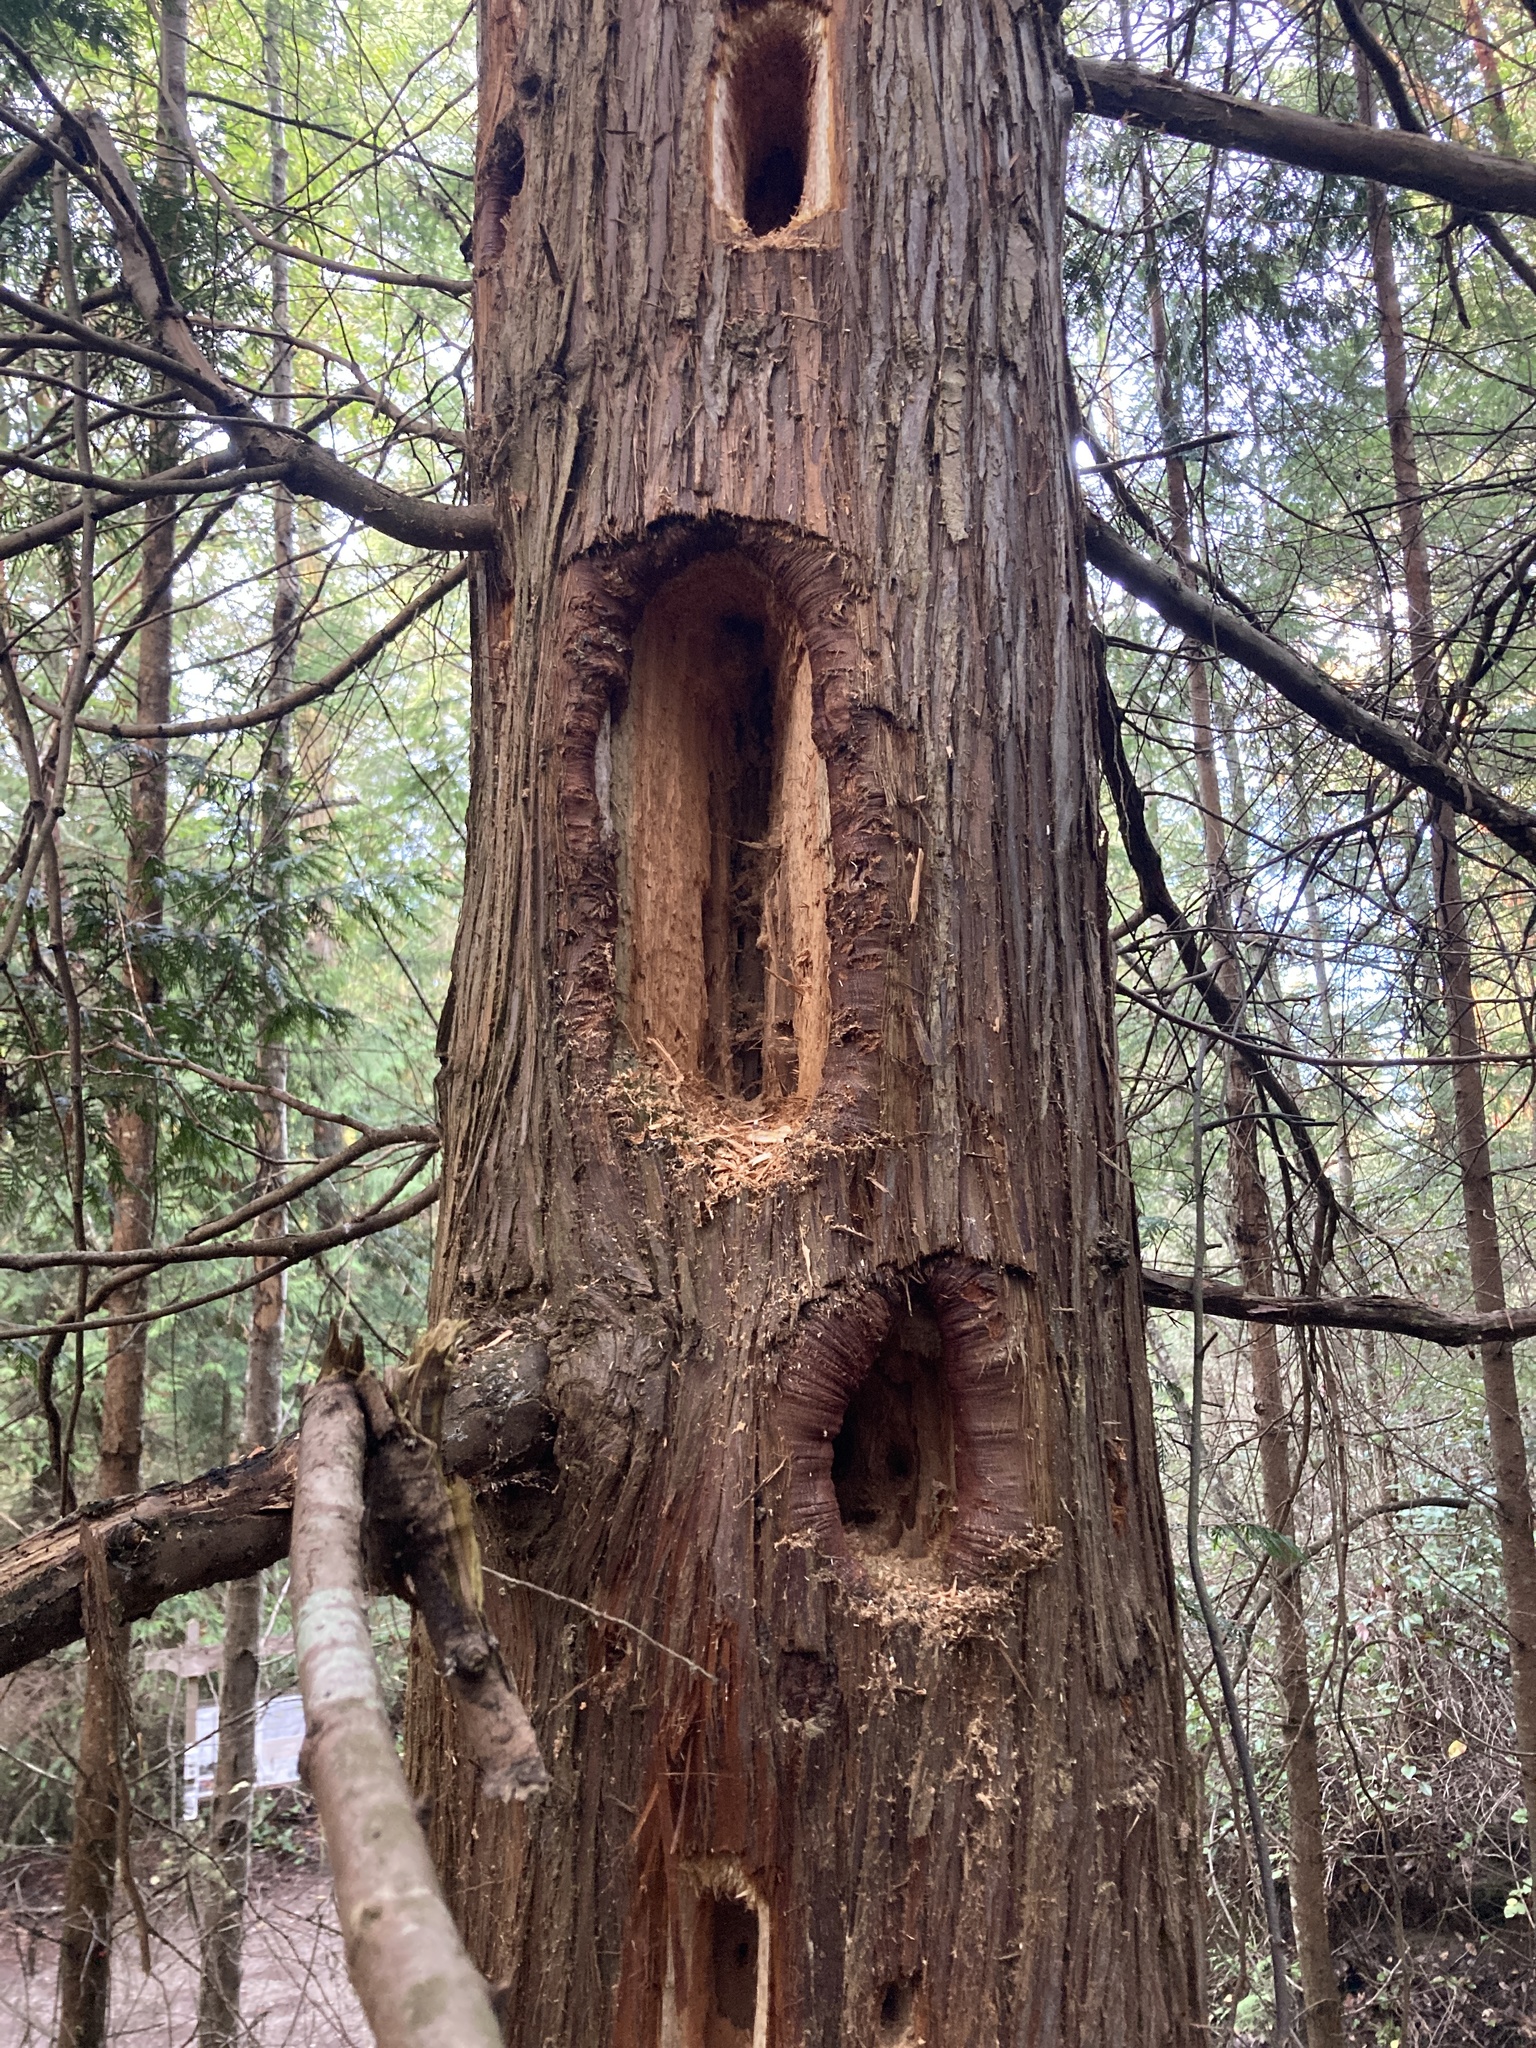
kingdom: Animalia
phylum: Chordata
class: Aves
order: Piciformes
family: Picidae
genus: Dryocopus
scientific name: Dryocopus pileatus
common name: Pileated woodpecker
